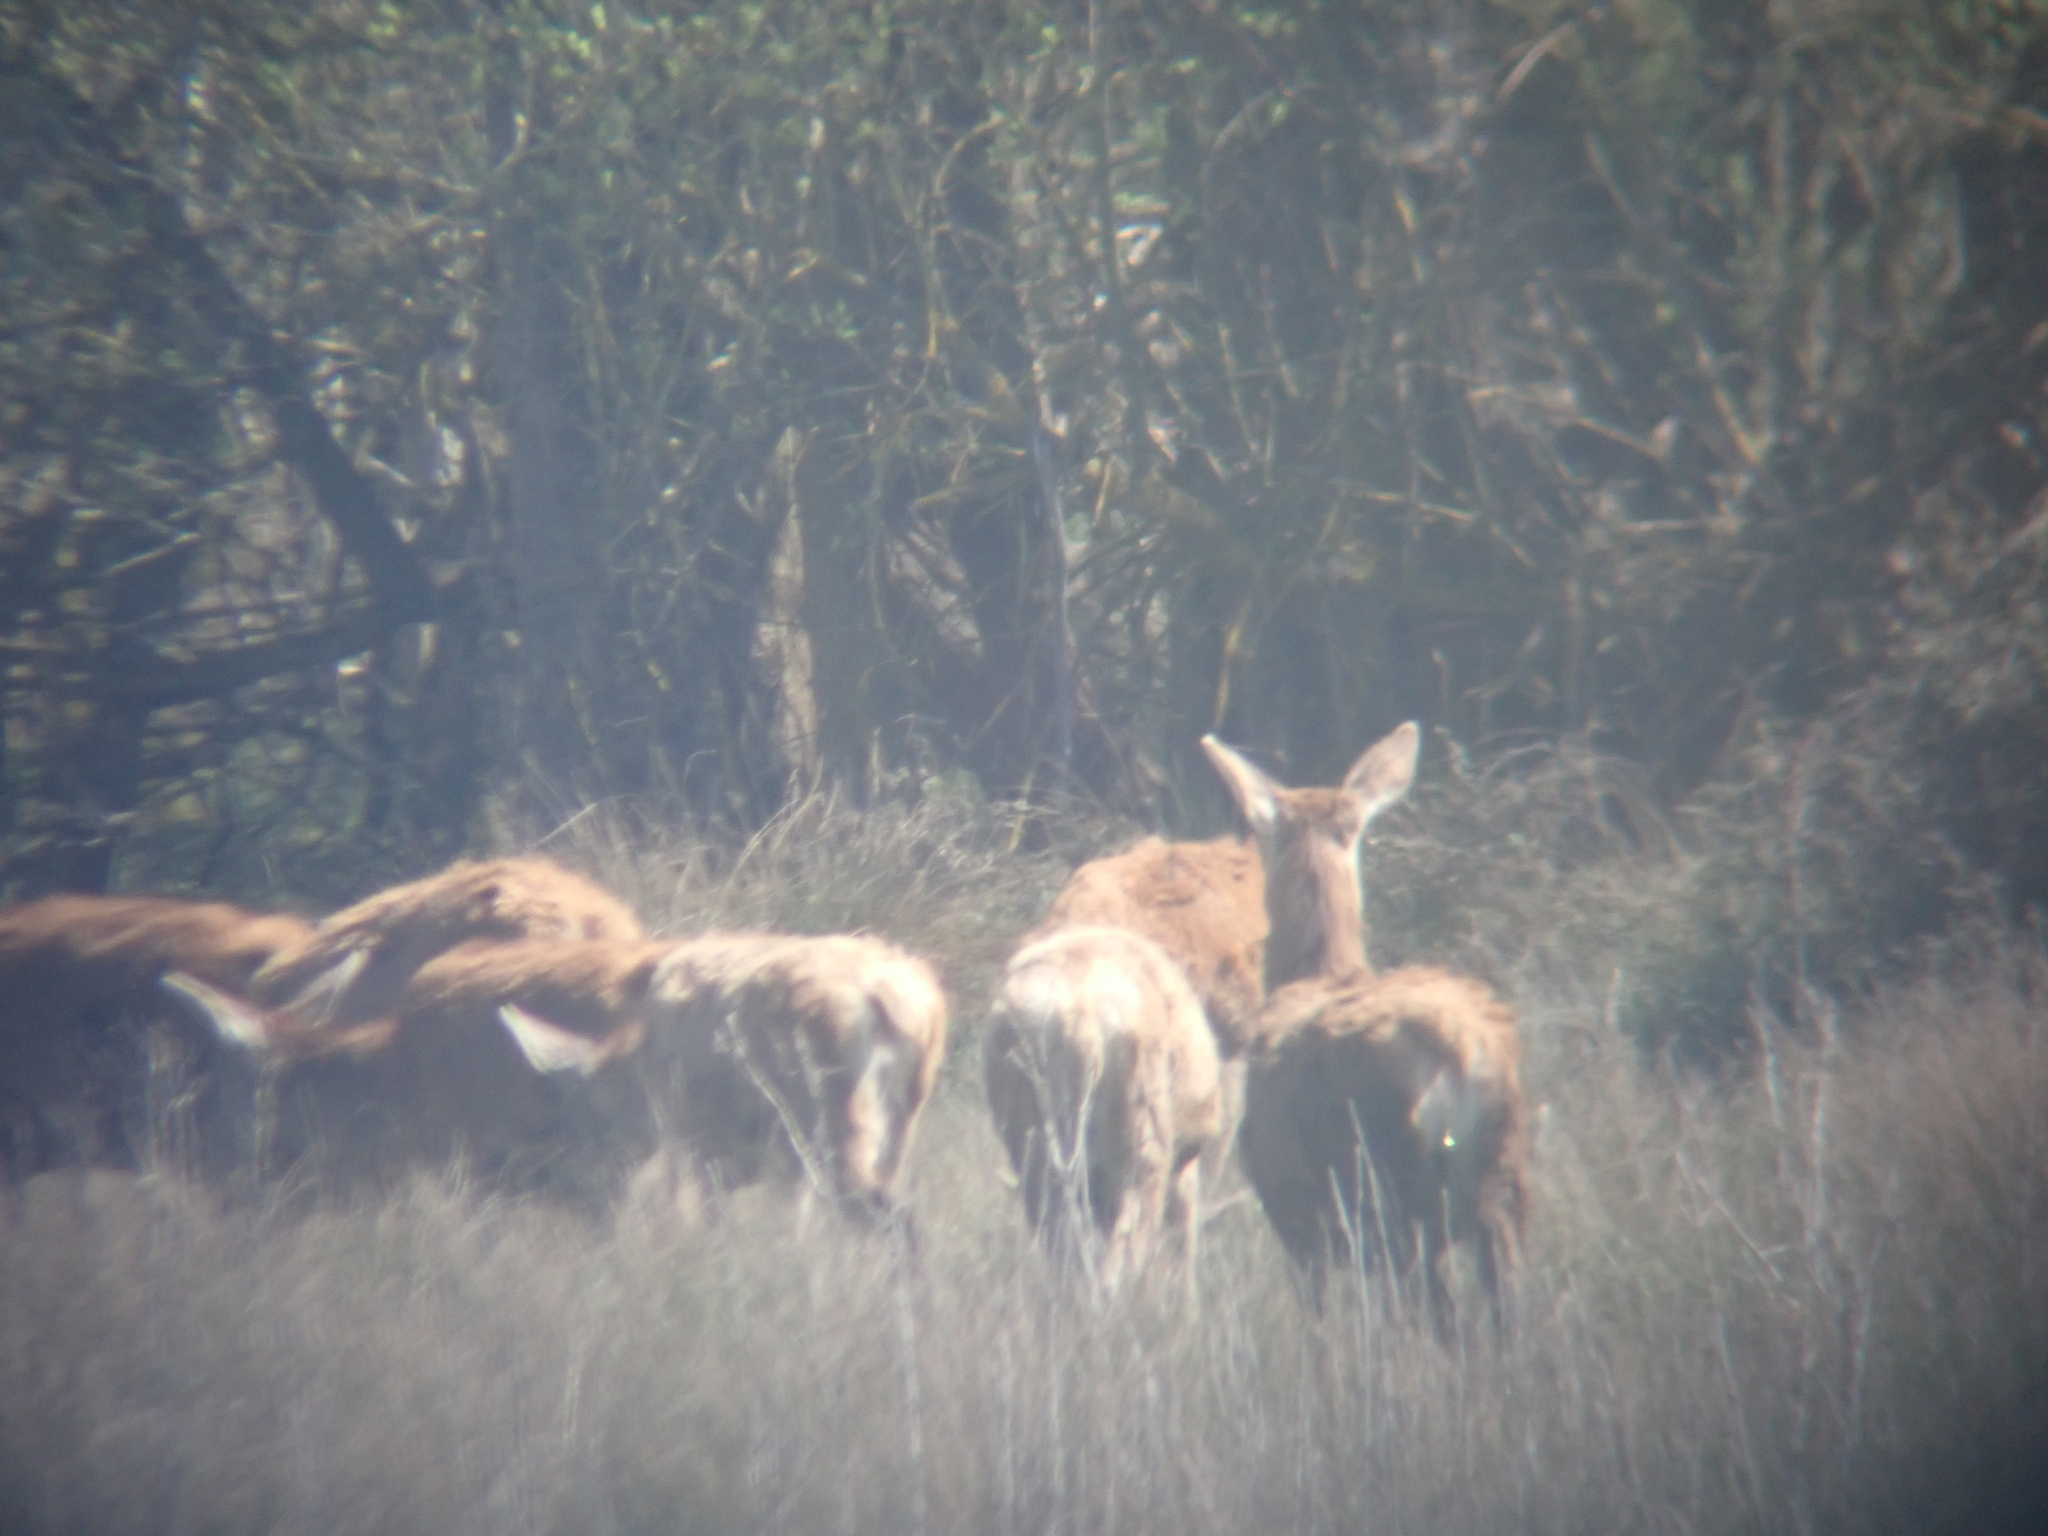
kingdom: Animalia
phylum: Chordata
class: Mammalia
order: Artiodactyla
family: Cervidae
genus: Cervus
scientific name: Cervus elaphus
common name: Red deer
